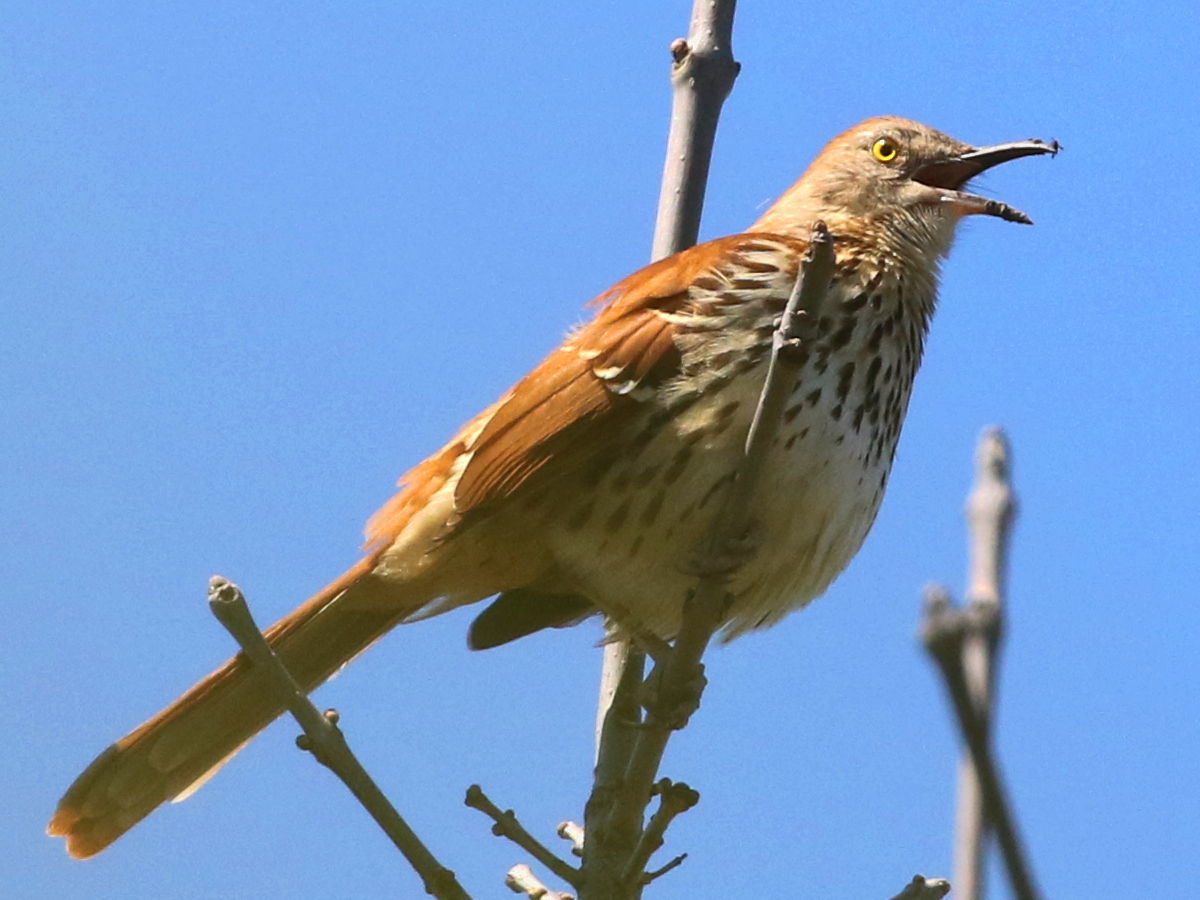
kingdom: Animalia
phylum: Chordata
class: Aves
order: Passeriformes
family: Mimidae
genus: Toxostoma
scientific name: Toxostoma rufum
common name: Brown thrasher
